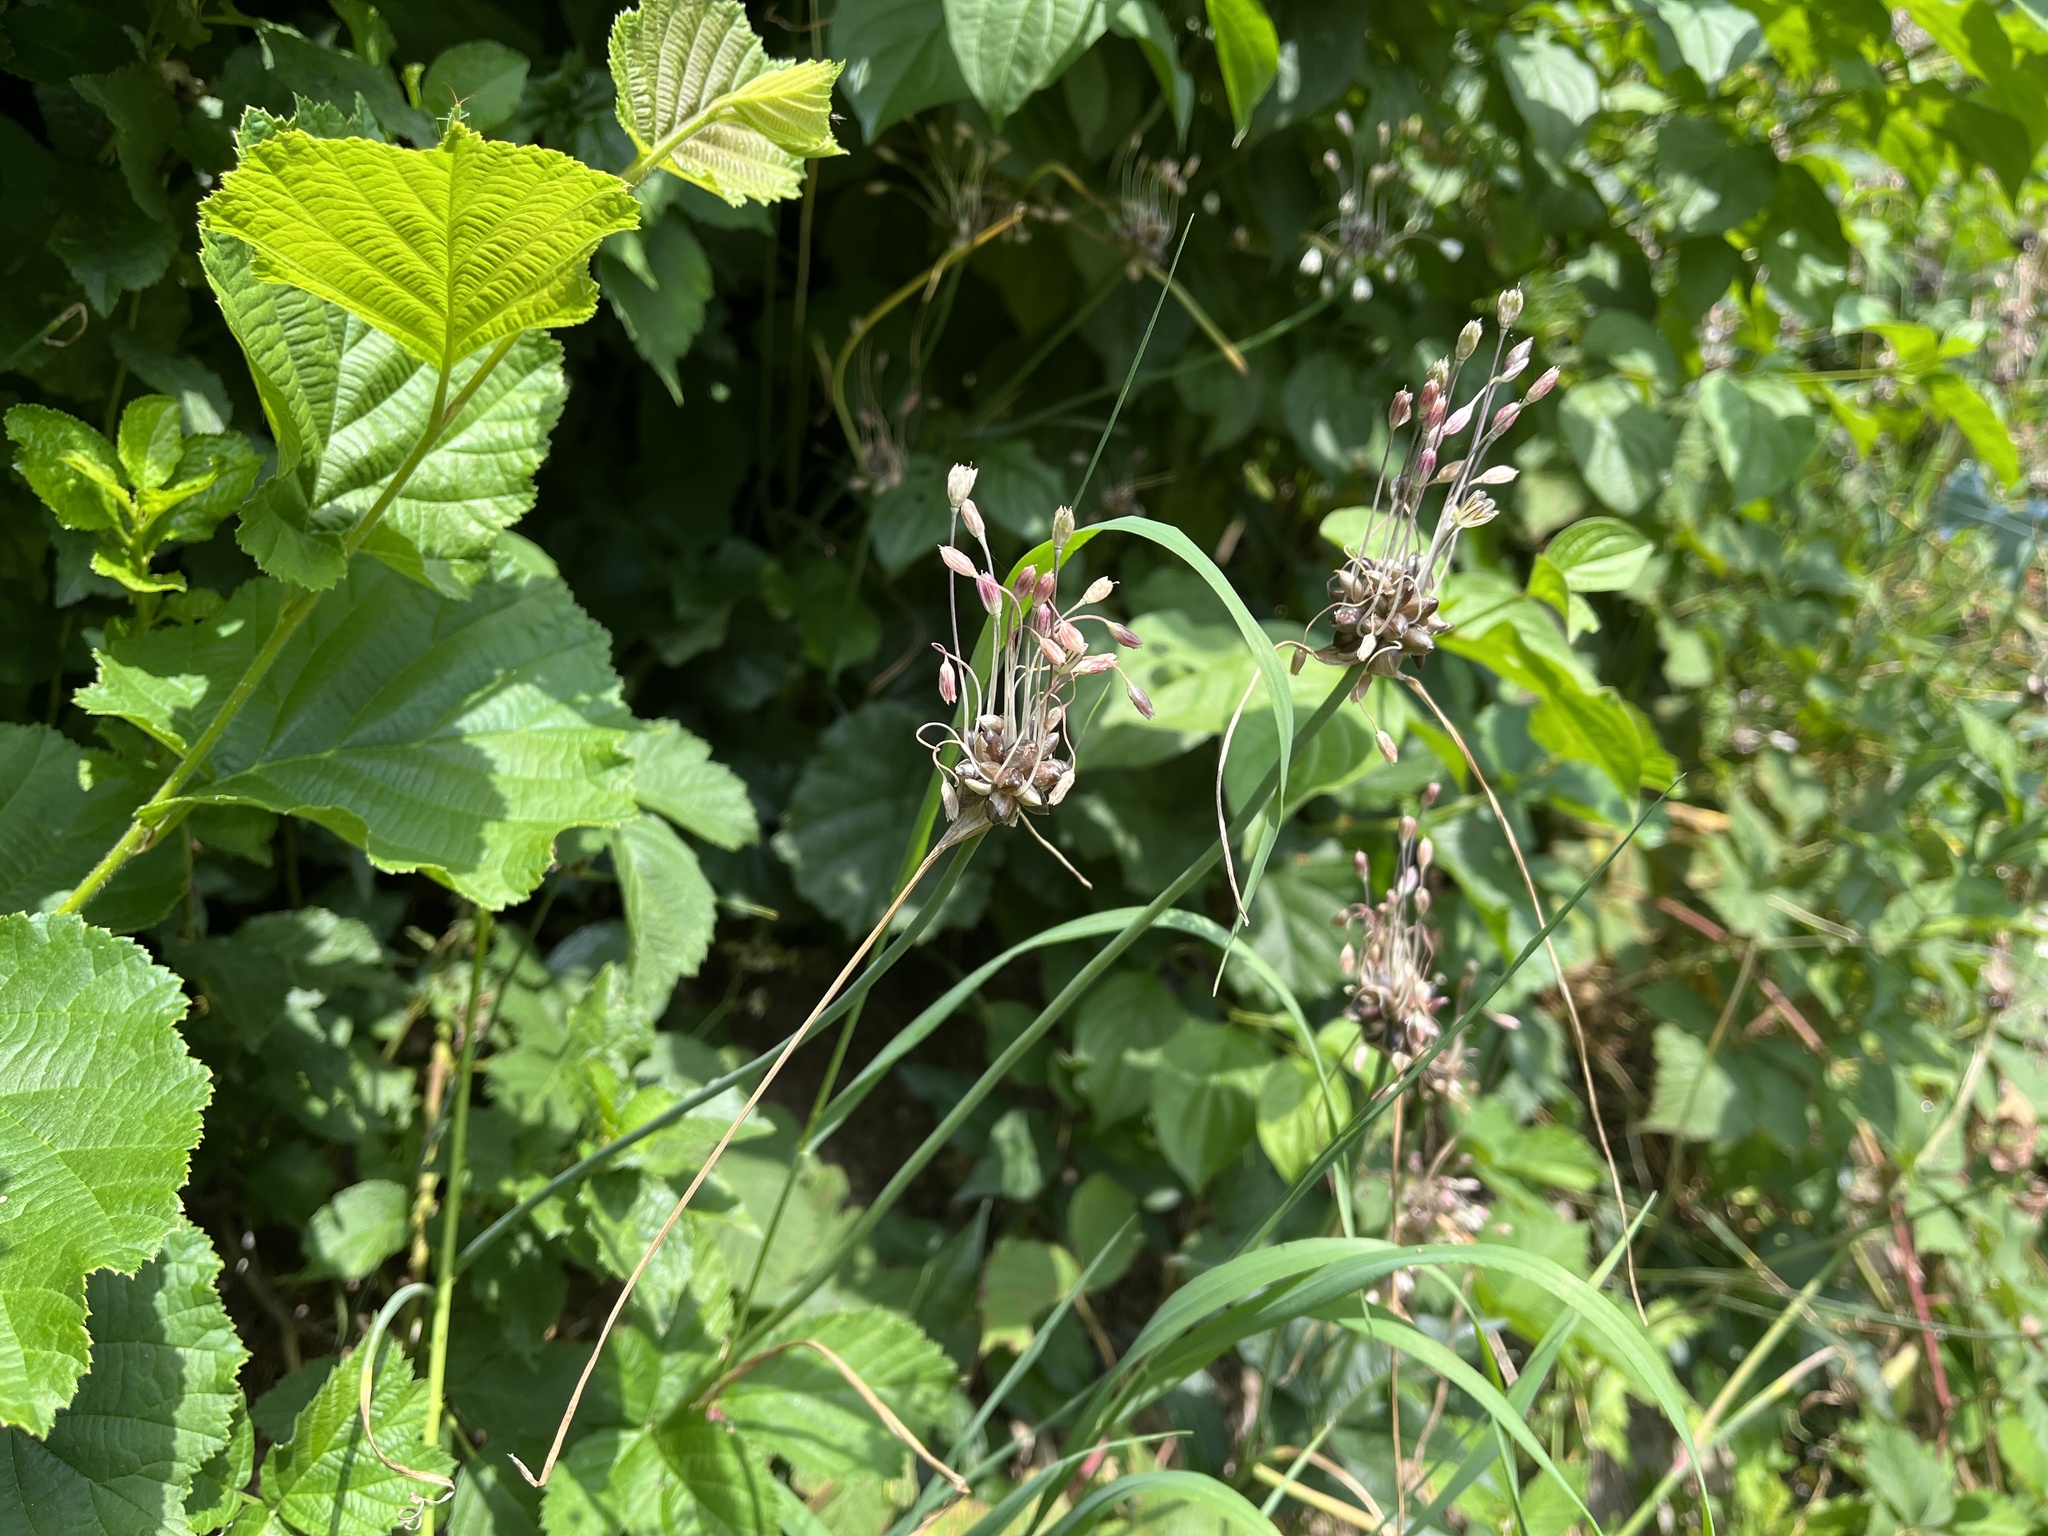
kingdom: Plantae
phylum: Tracheophyta
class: Liliopsida
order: Asparagales
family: Amaryllidaceae
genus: Allium
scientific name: Allium oleraceum
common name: Field garlic
